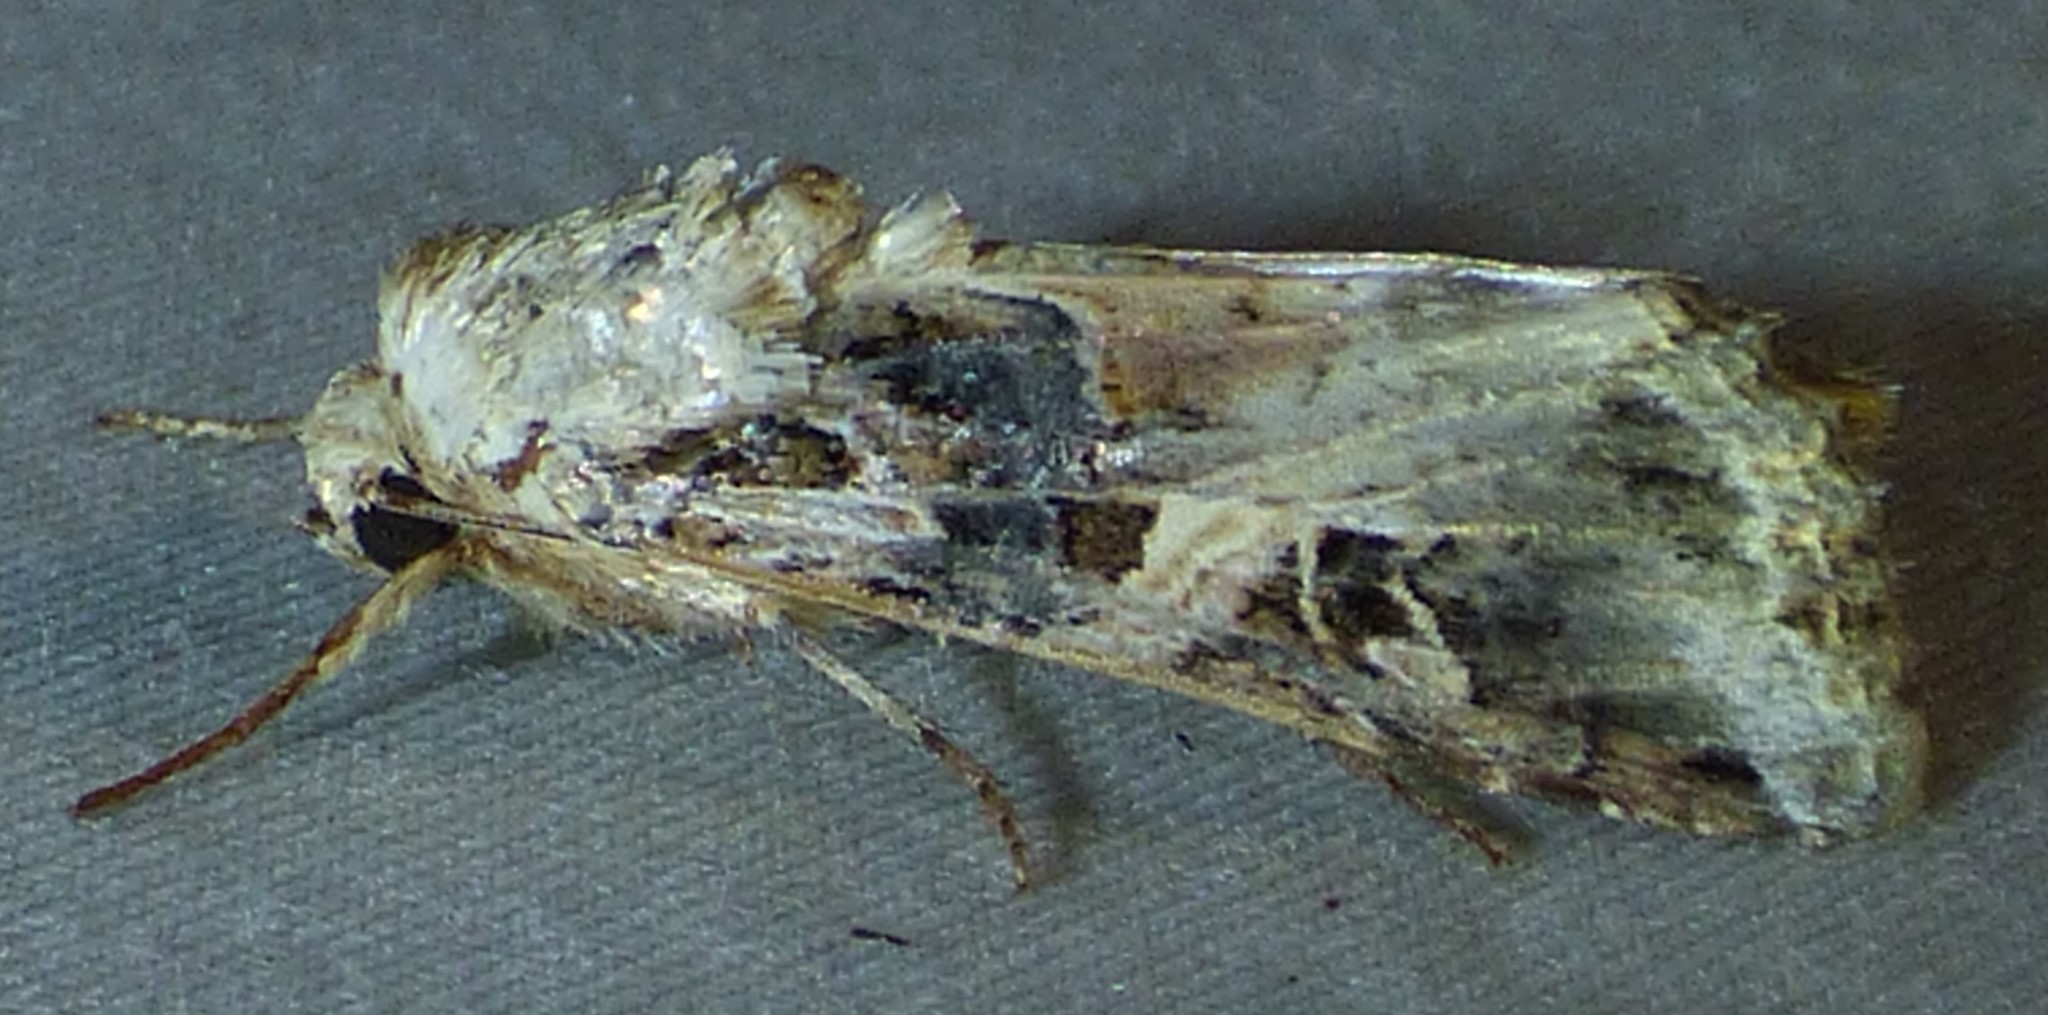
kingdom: Animalia
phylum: Arthropoda
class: Insecta
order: Lepidoptera
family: Noctuidae
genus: Spodoptera
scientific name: Spodoptera ornithogalli
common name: Yellow-striped armyworm
